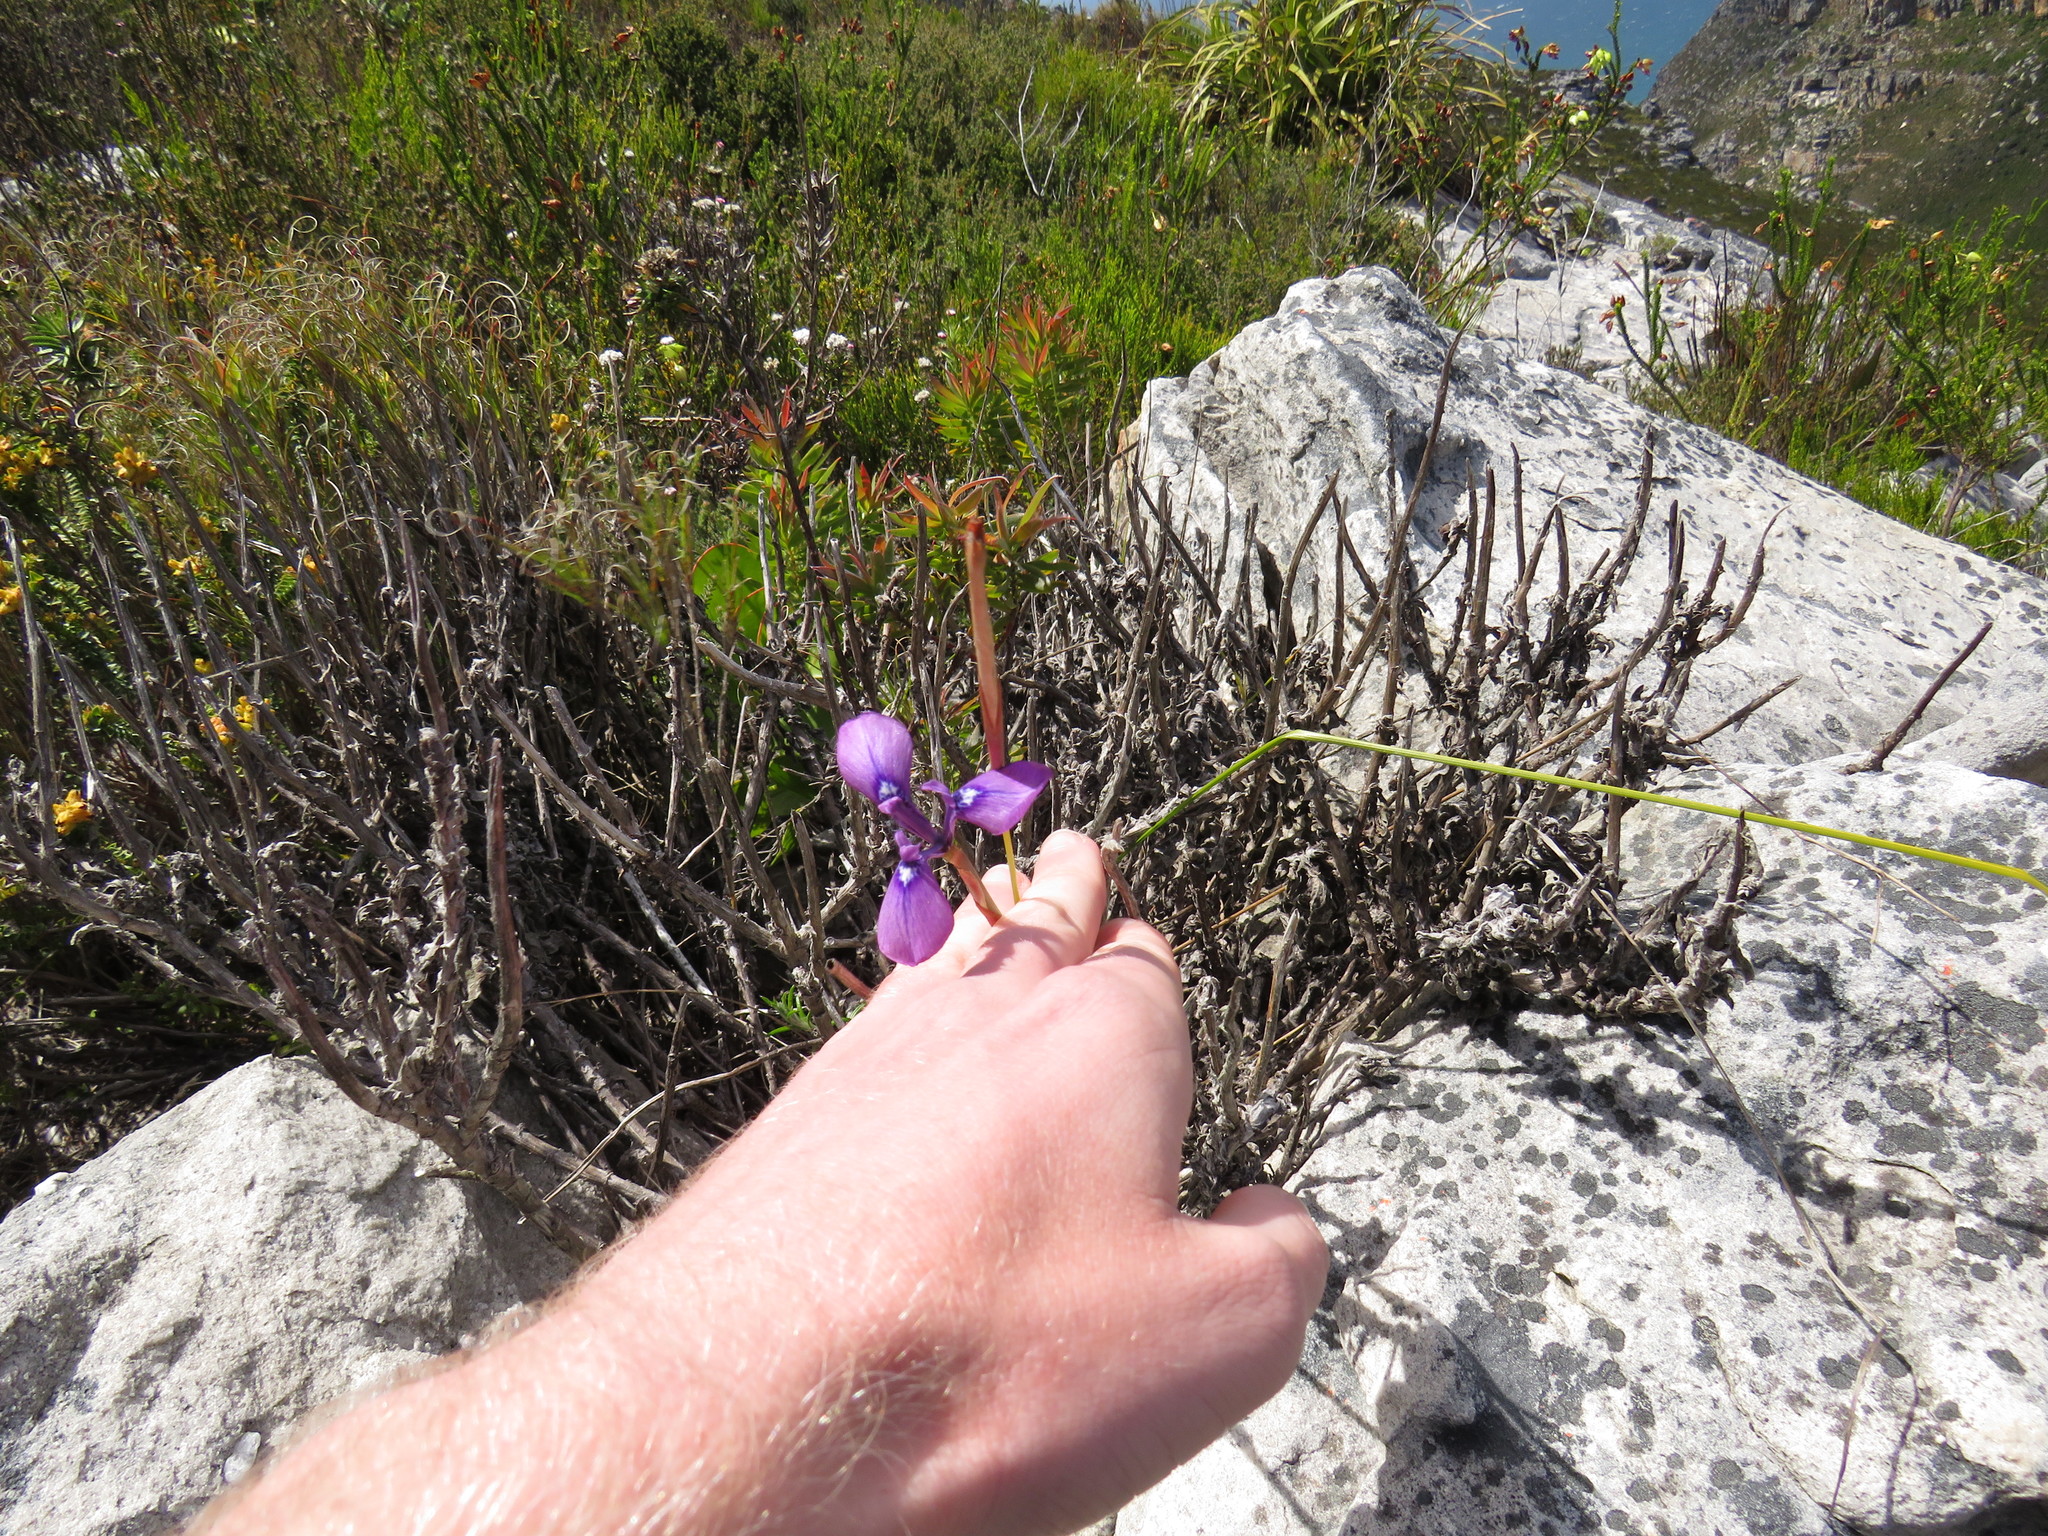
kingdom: Plantae
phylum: Tracheophyta
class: Liliopsida
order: Asparagales
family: Iridaceae
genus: Moraea
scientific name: Moraea tripetala
